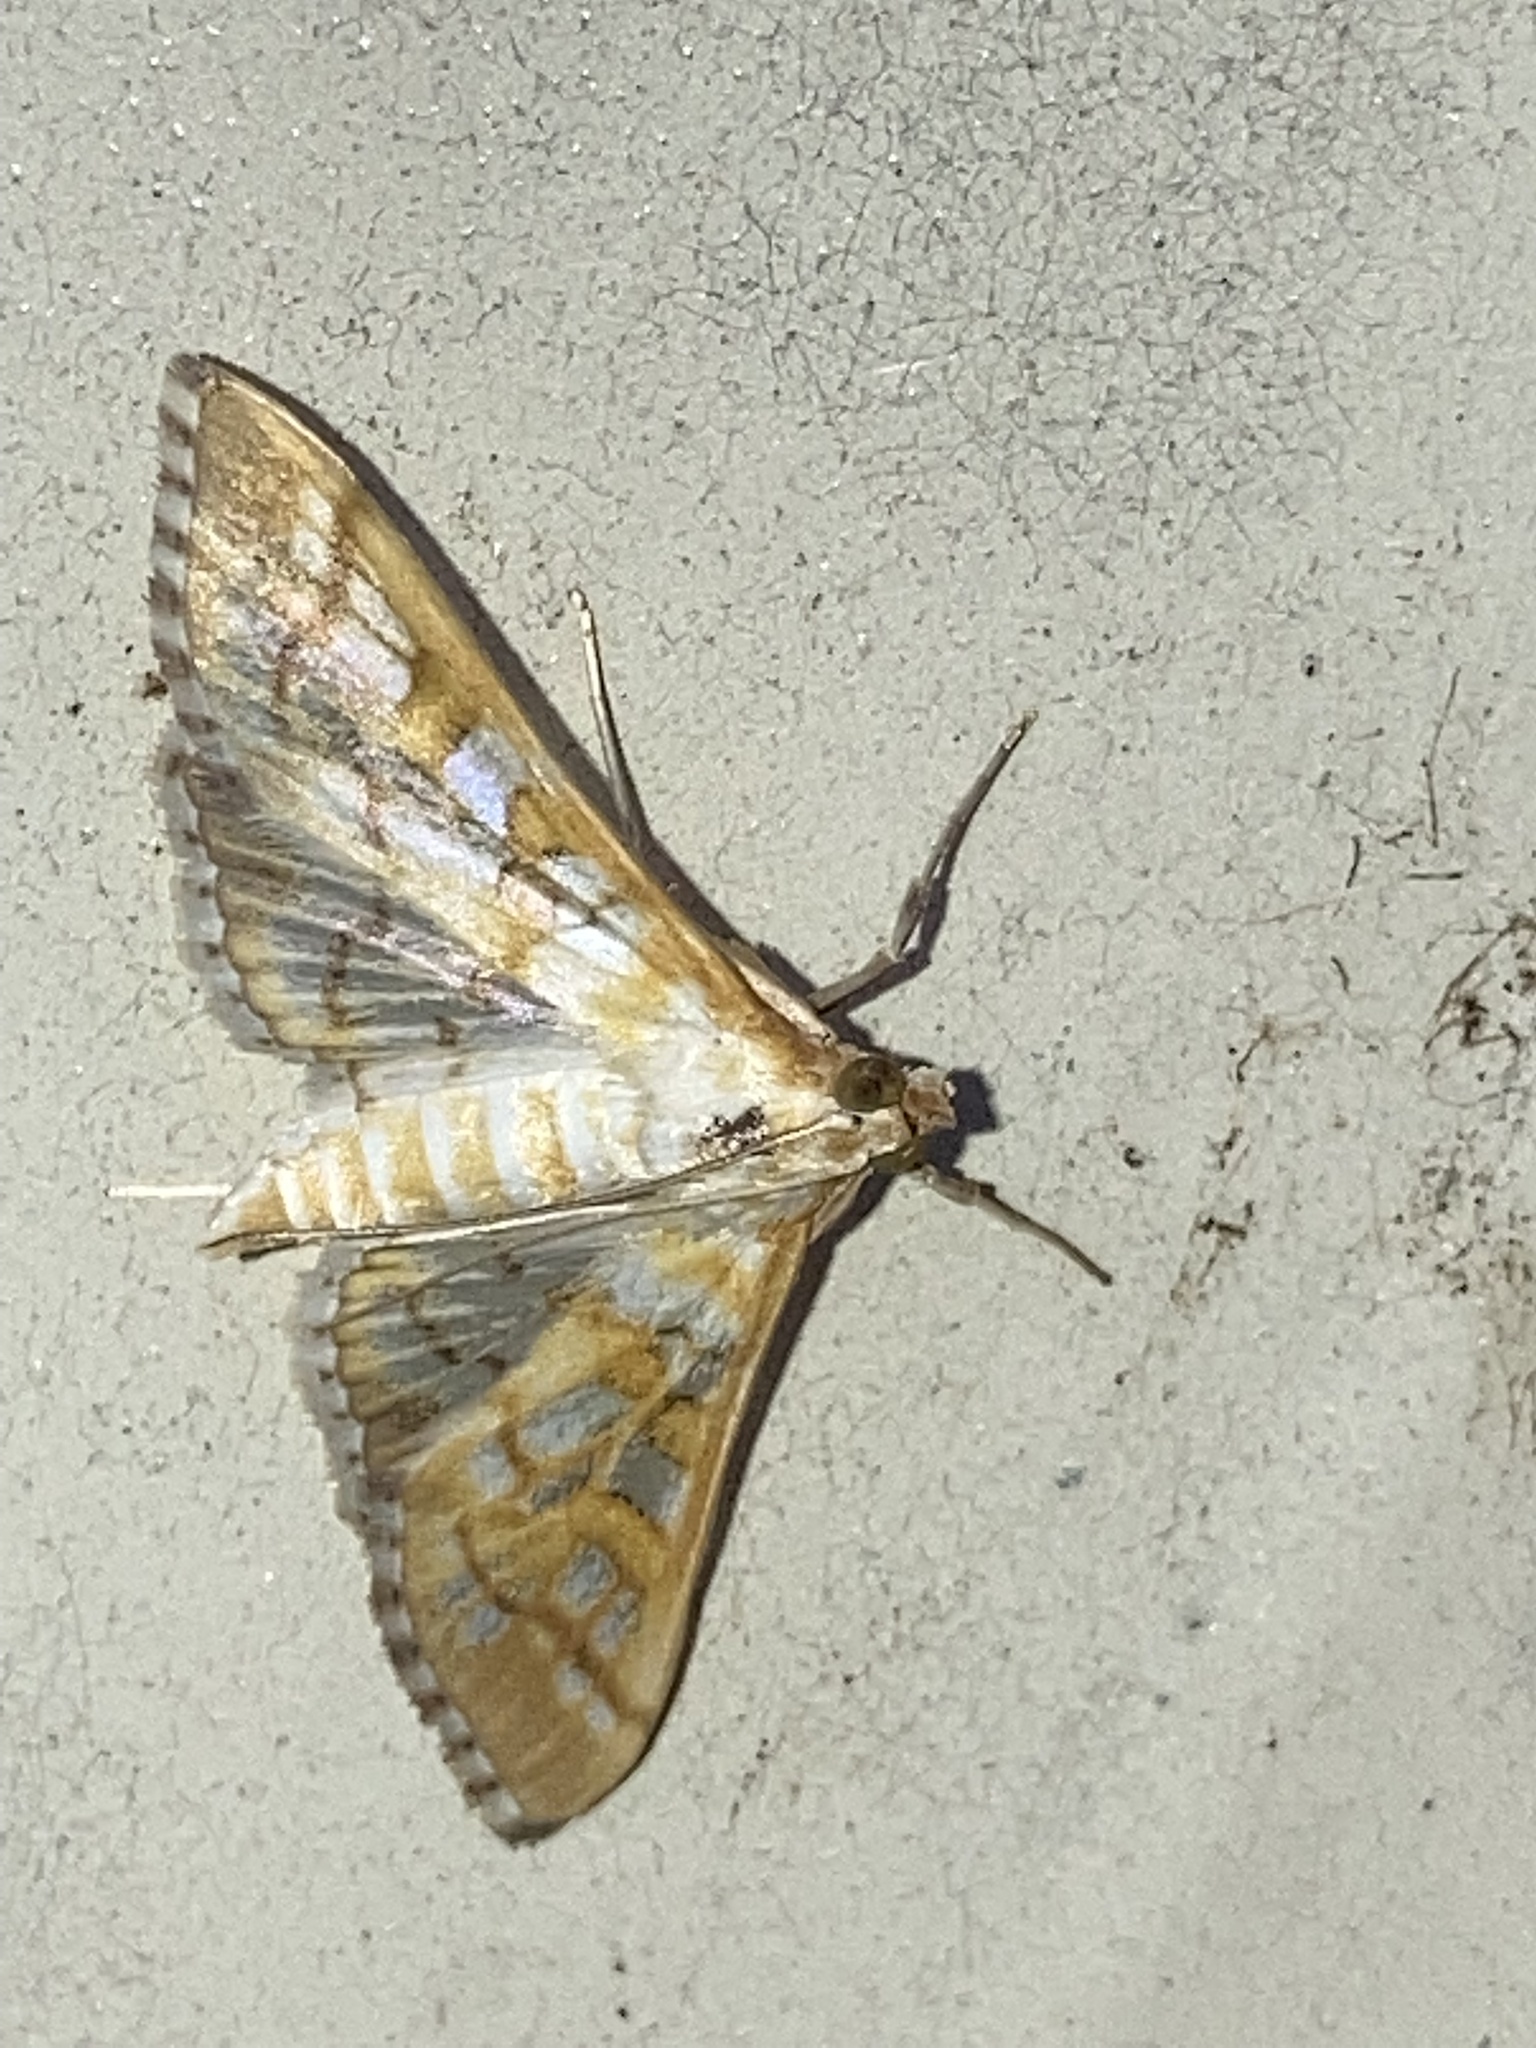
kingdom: Animalia
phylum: Arthropoda
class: Insecta
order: Lepidoptera
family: Crambidae
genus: Epipagis
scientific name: Epipagis fenestralis
